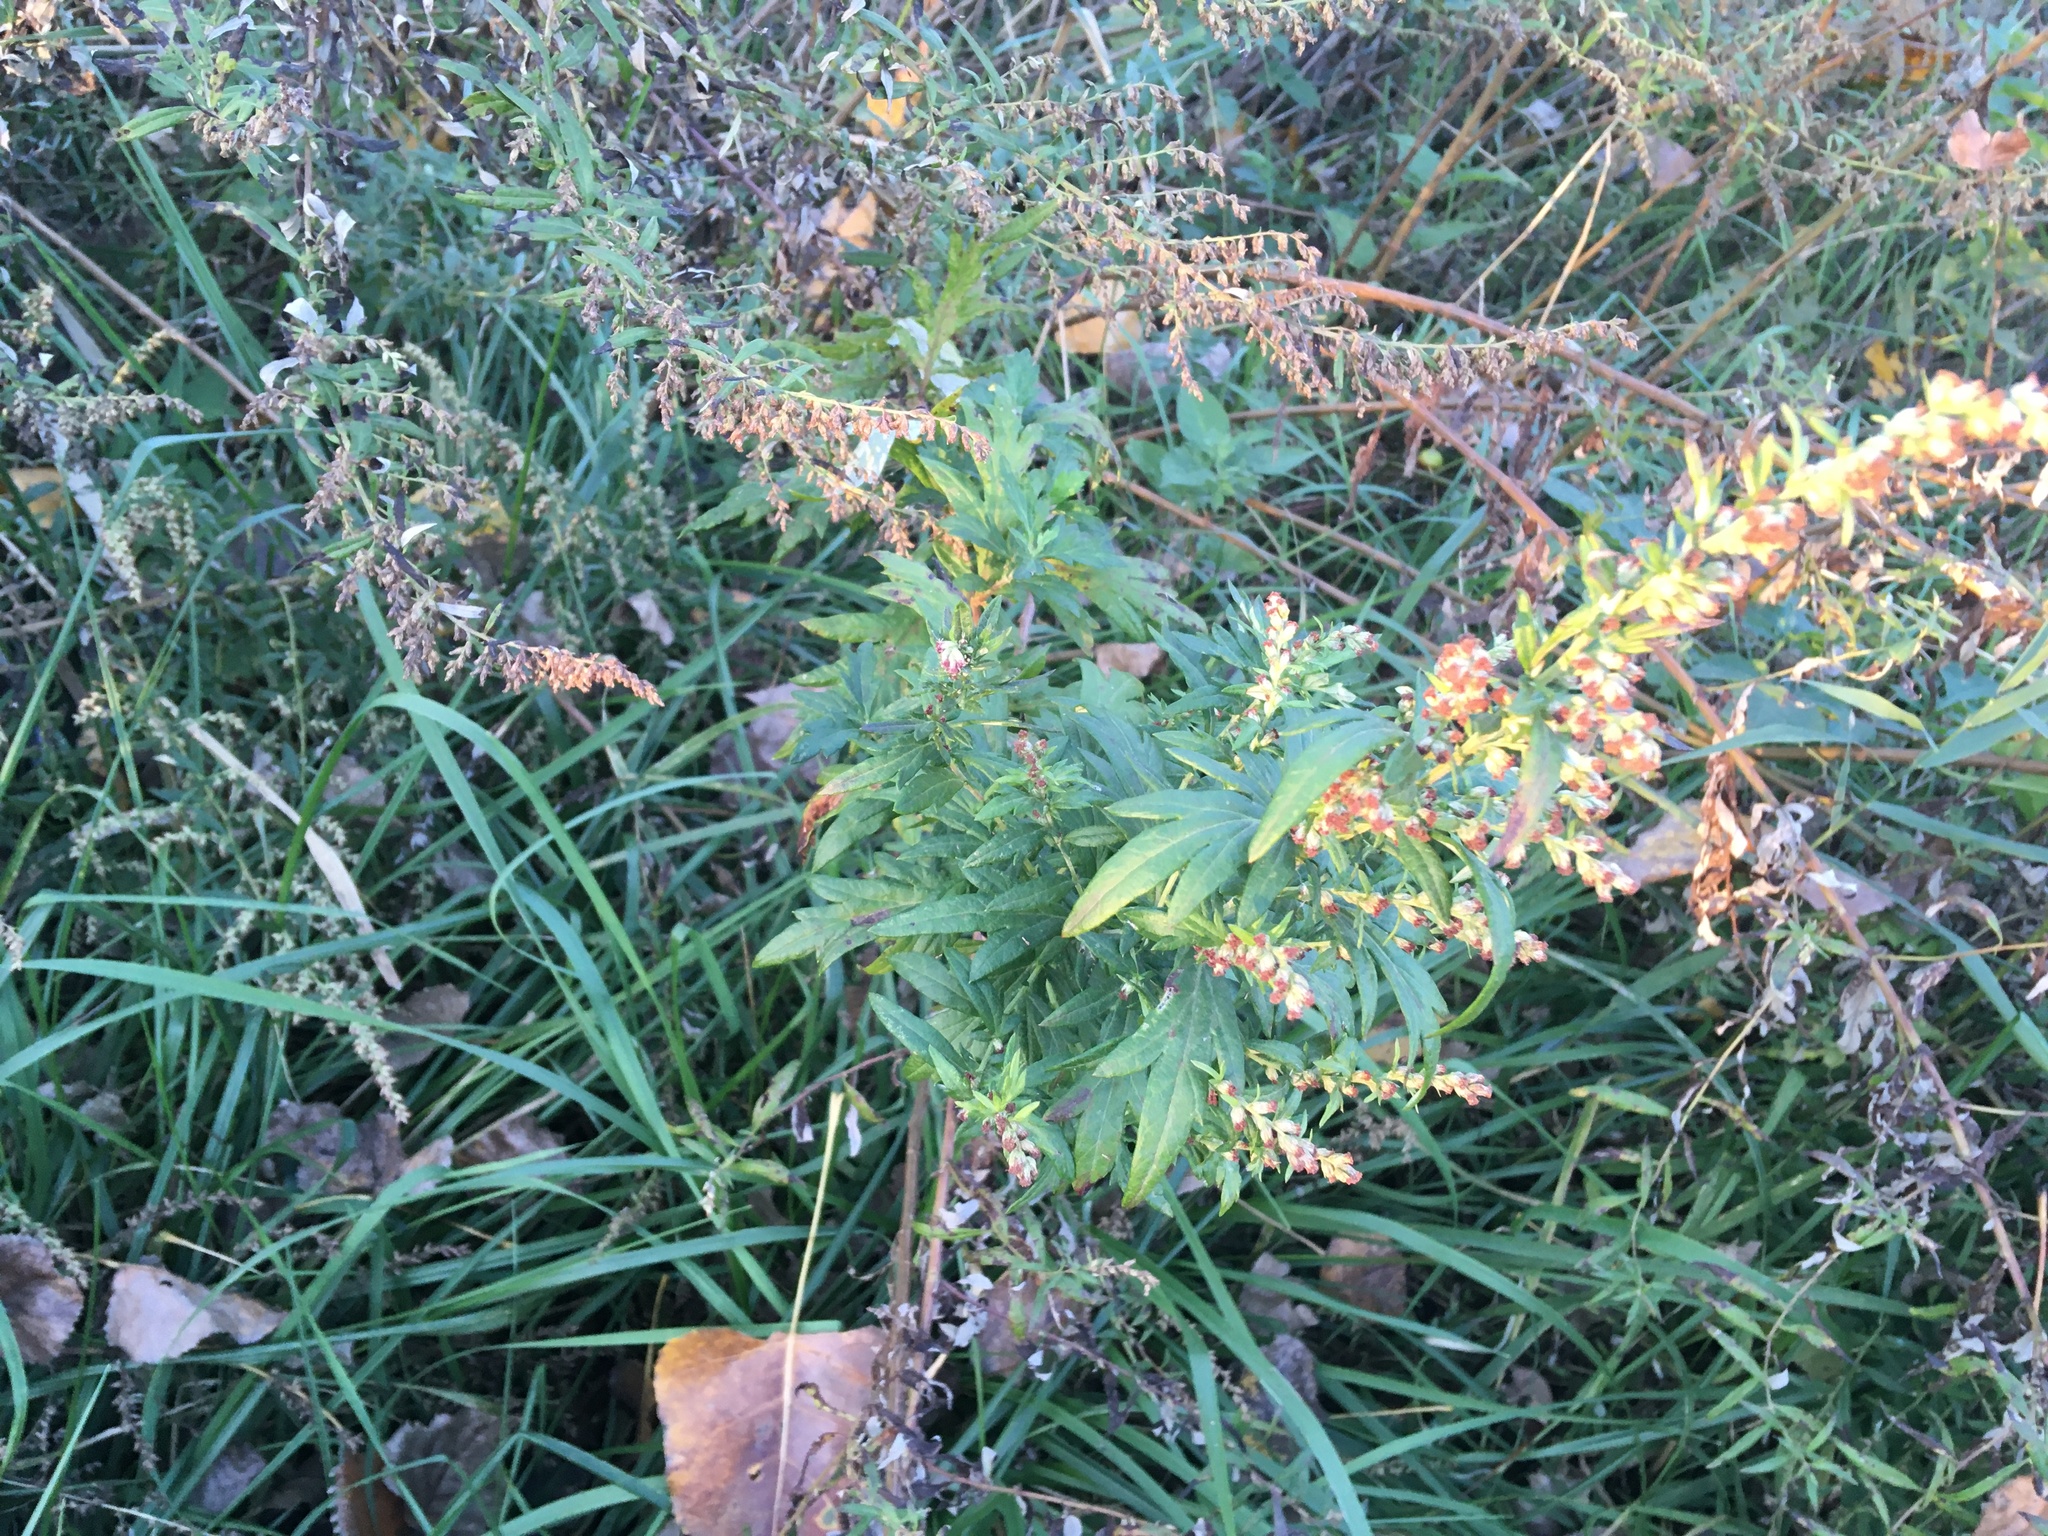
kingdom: Plantae
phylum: Tracheophyta
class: Magnoliopsida
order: Asterales
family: Asteraceae
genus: Artemisia
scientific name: Artemisia vulgaris
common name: Mugwort
